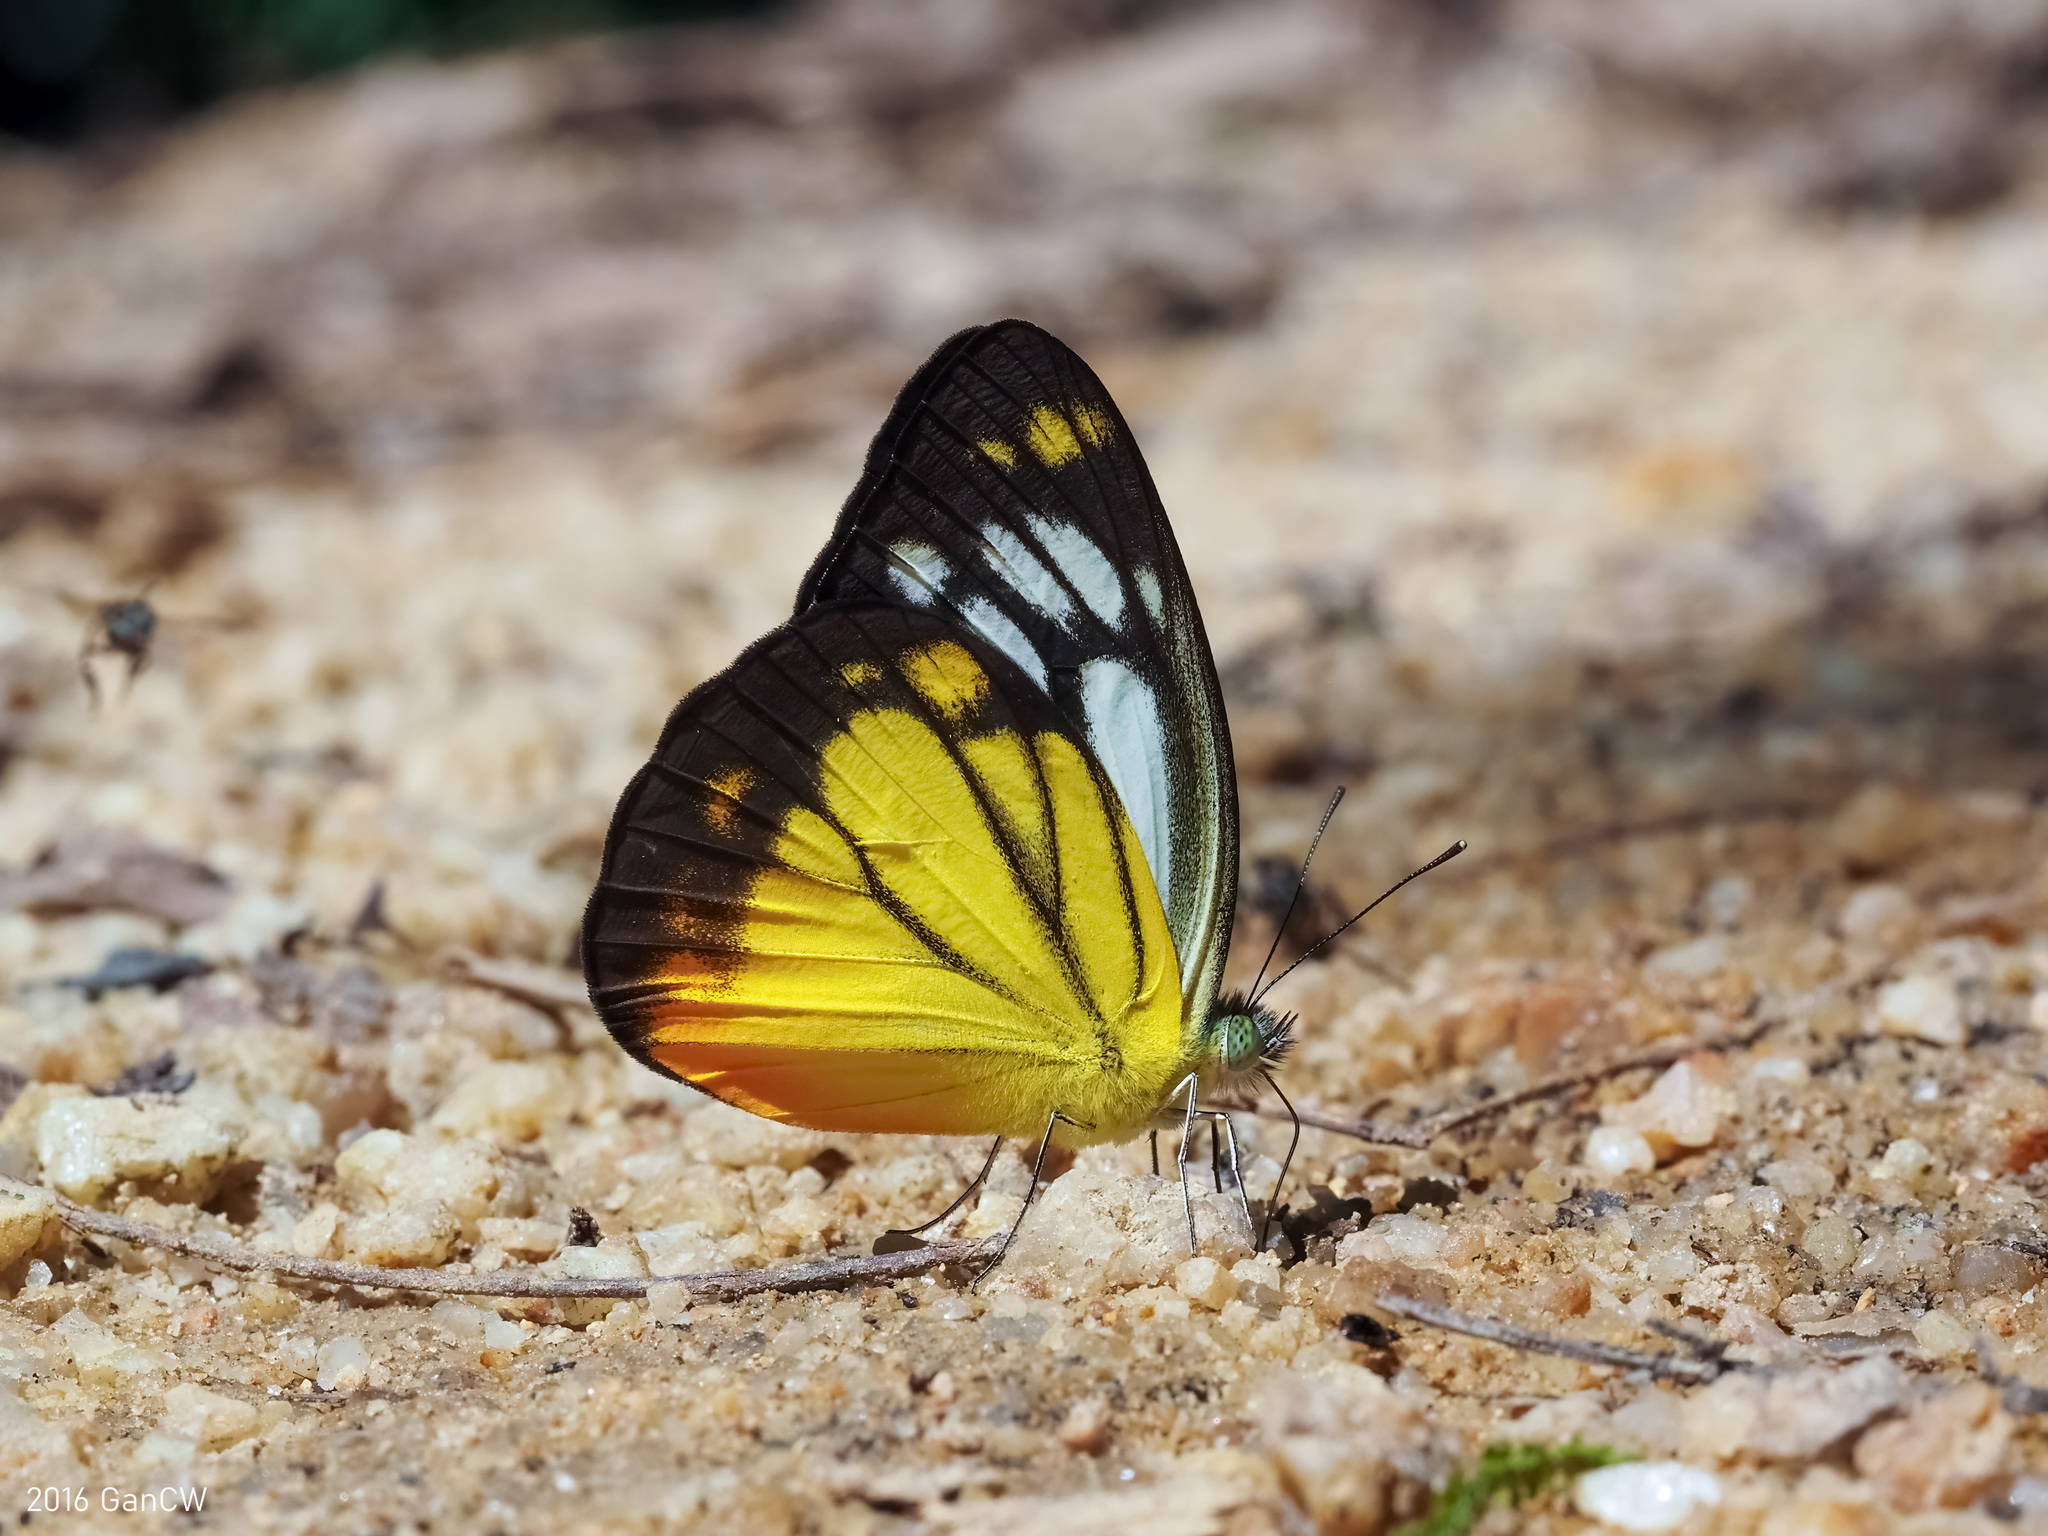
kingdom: Animalia
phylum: Arthropoda
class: Insecta
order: Lepidoptera
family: Pieridae
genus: Cepora
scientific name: Cepora iudith
